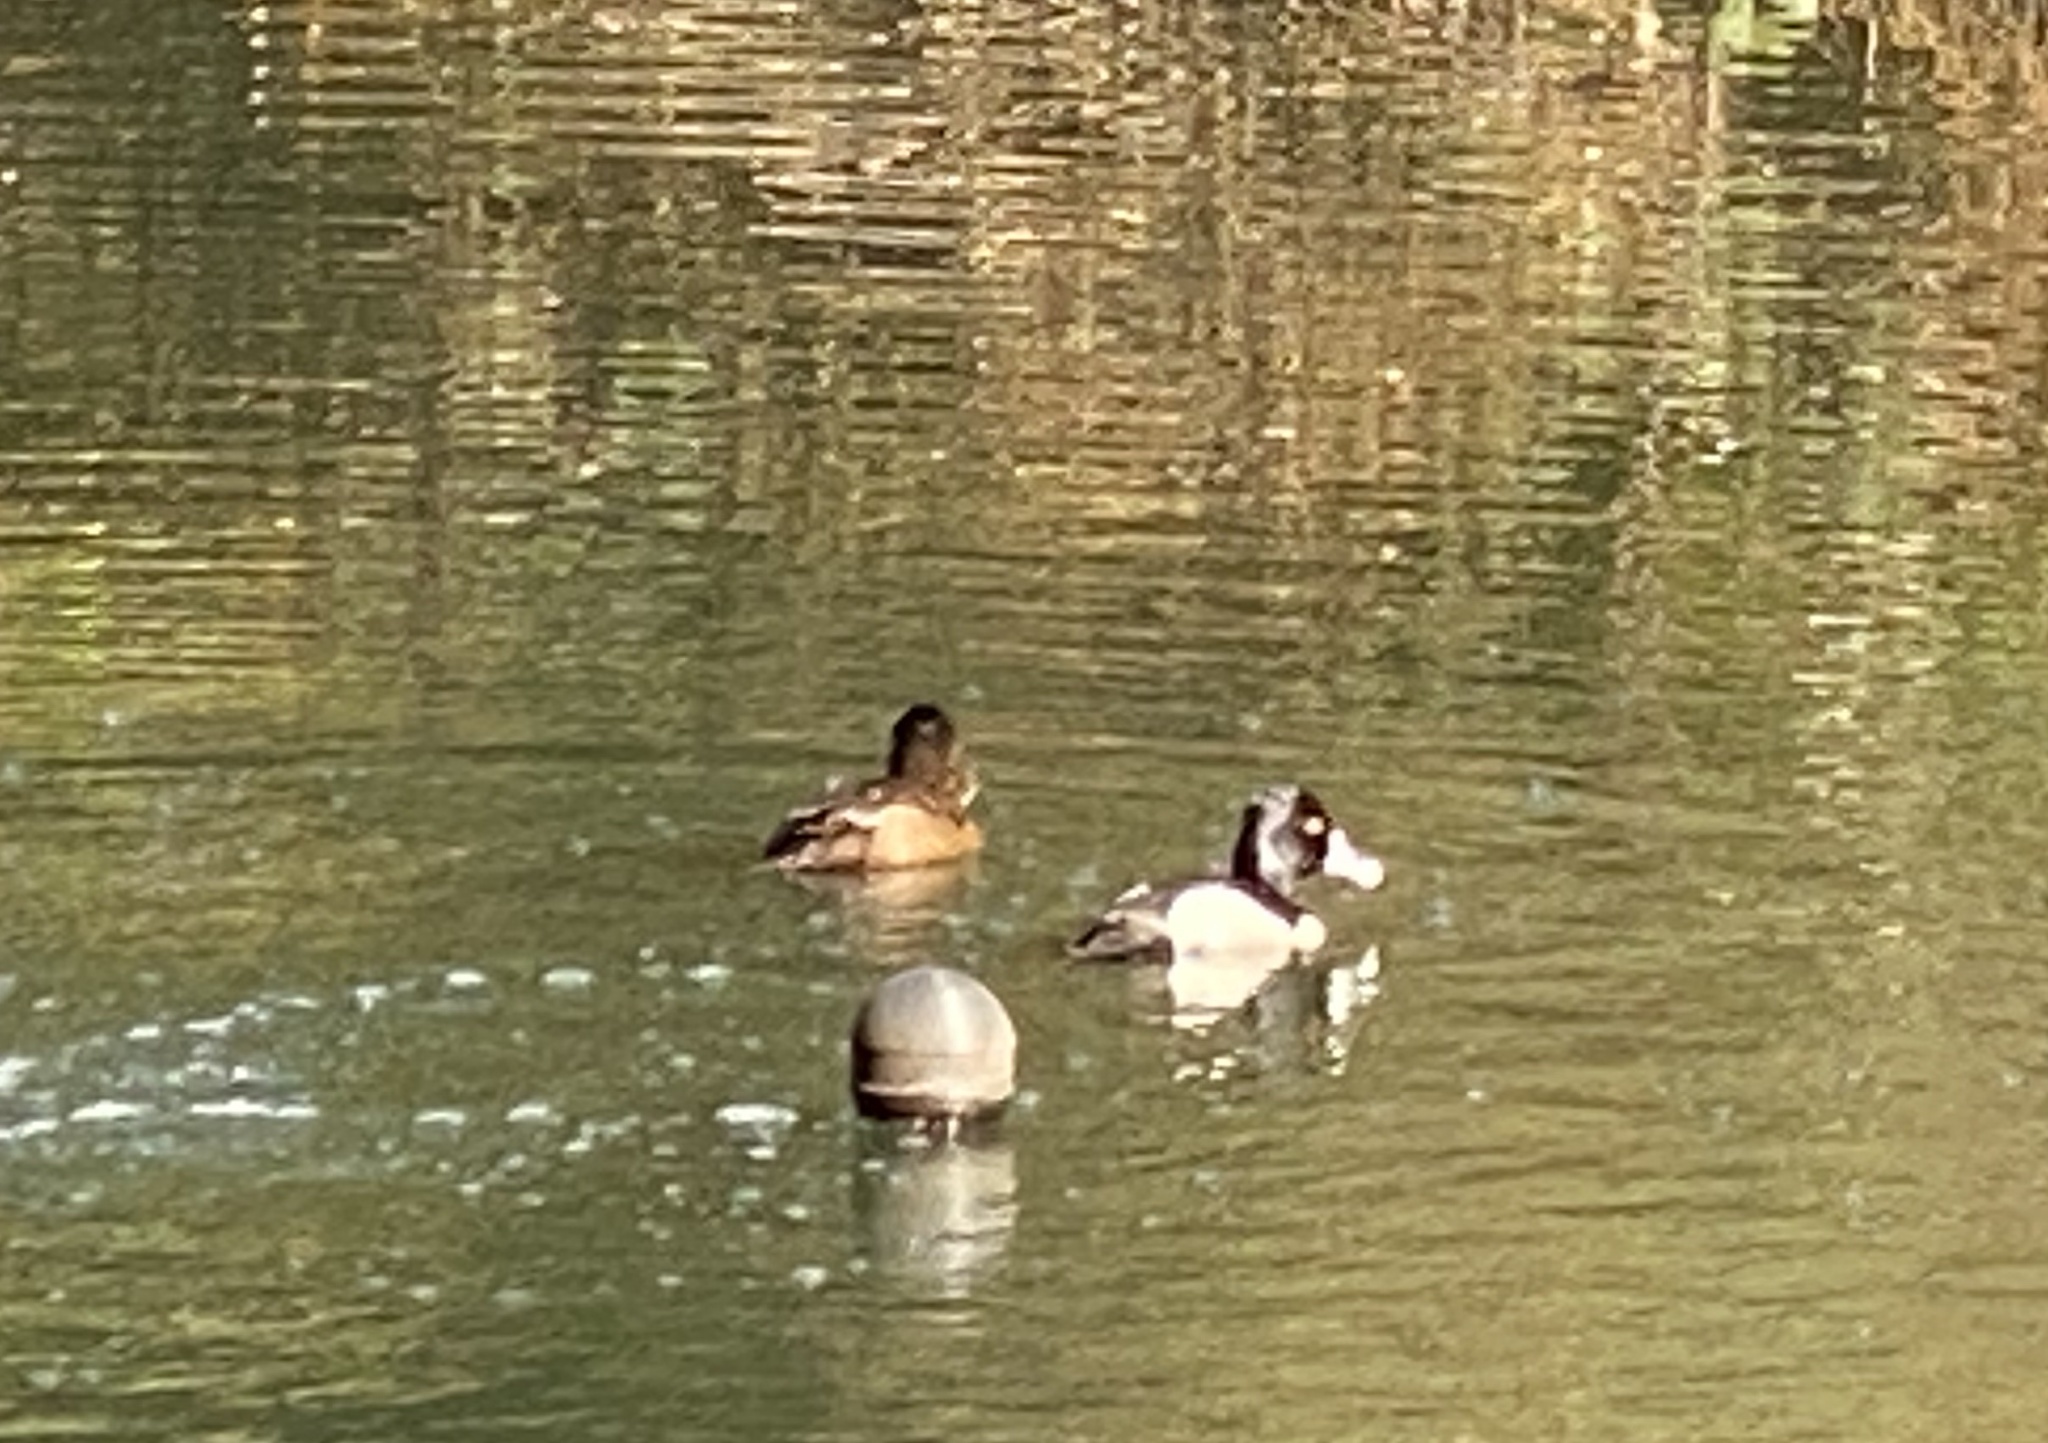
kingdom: Animalia
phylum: Chordata
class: Aves
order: Anseriformes
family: Anatidae
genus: Aythya
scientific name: Aythya collaris
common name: Ring-necked duck
